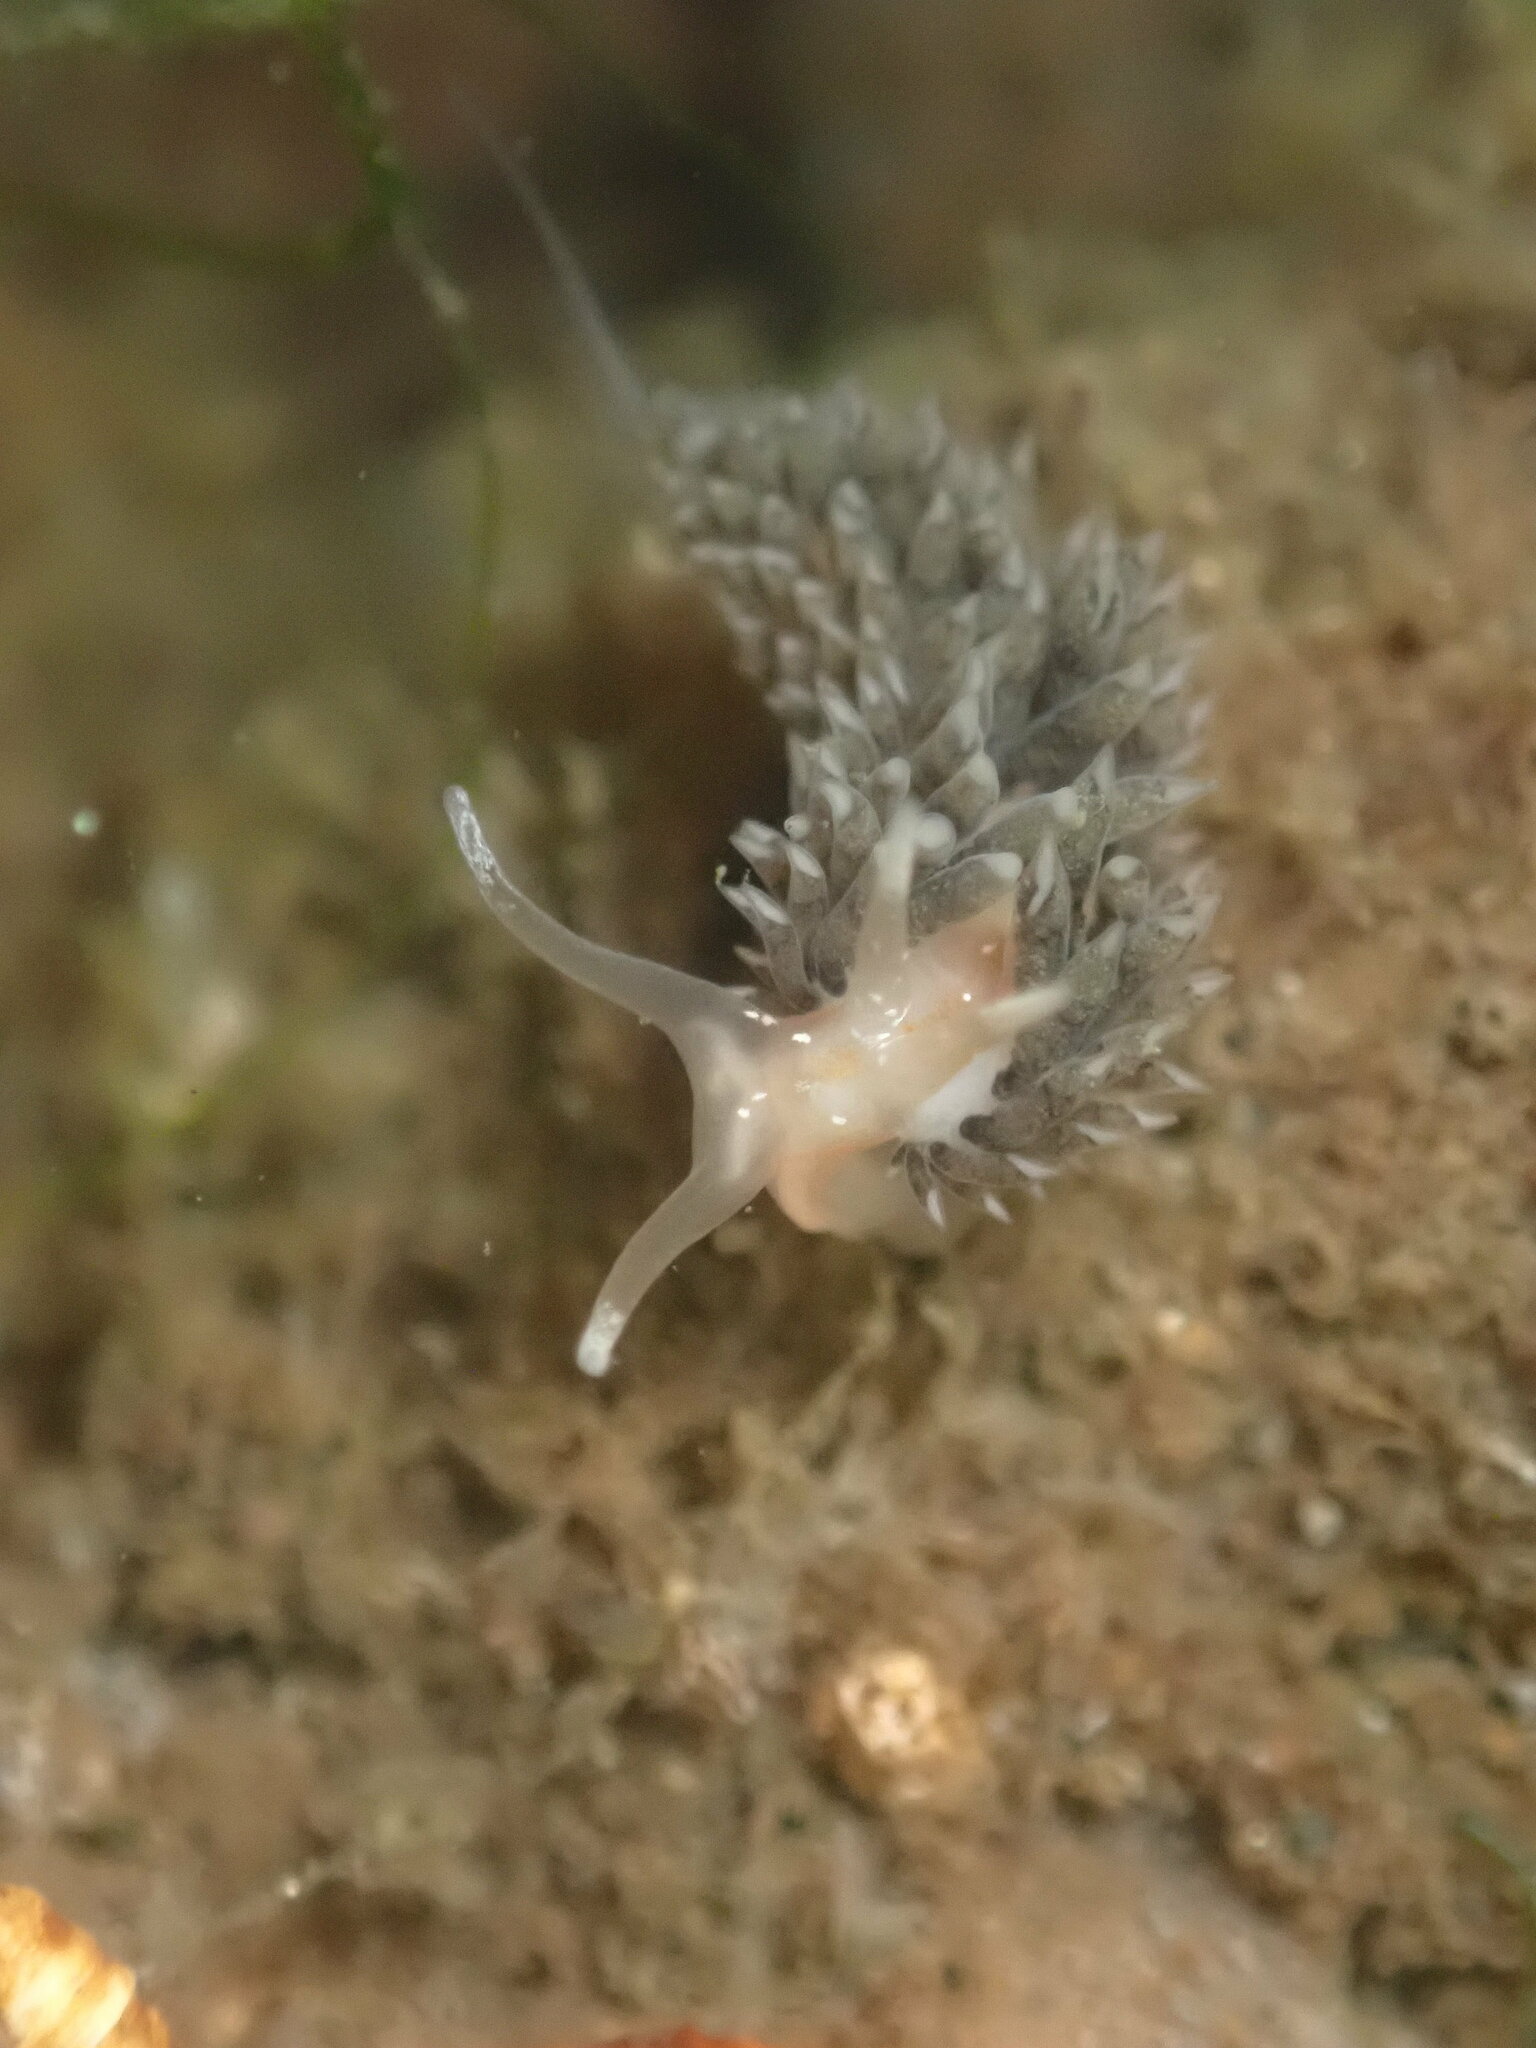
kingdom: Animalia
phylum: Mollusca
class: Gastropoda
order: Nudibranchia
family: Facelinidae
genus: Emarcusia
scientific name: Emarcusia morroensis
